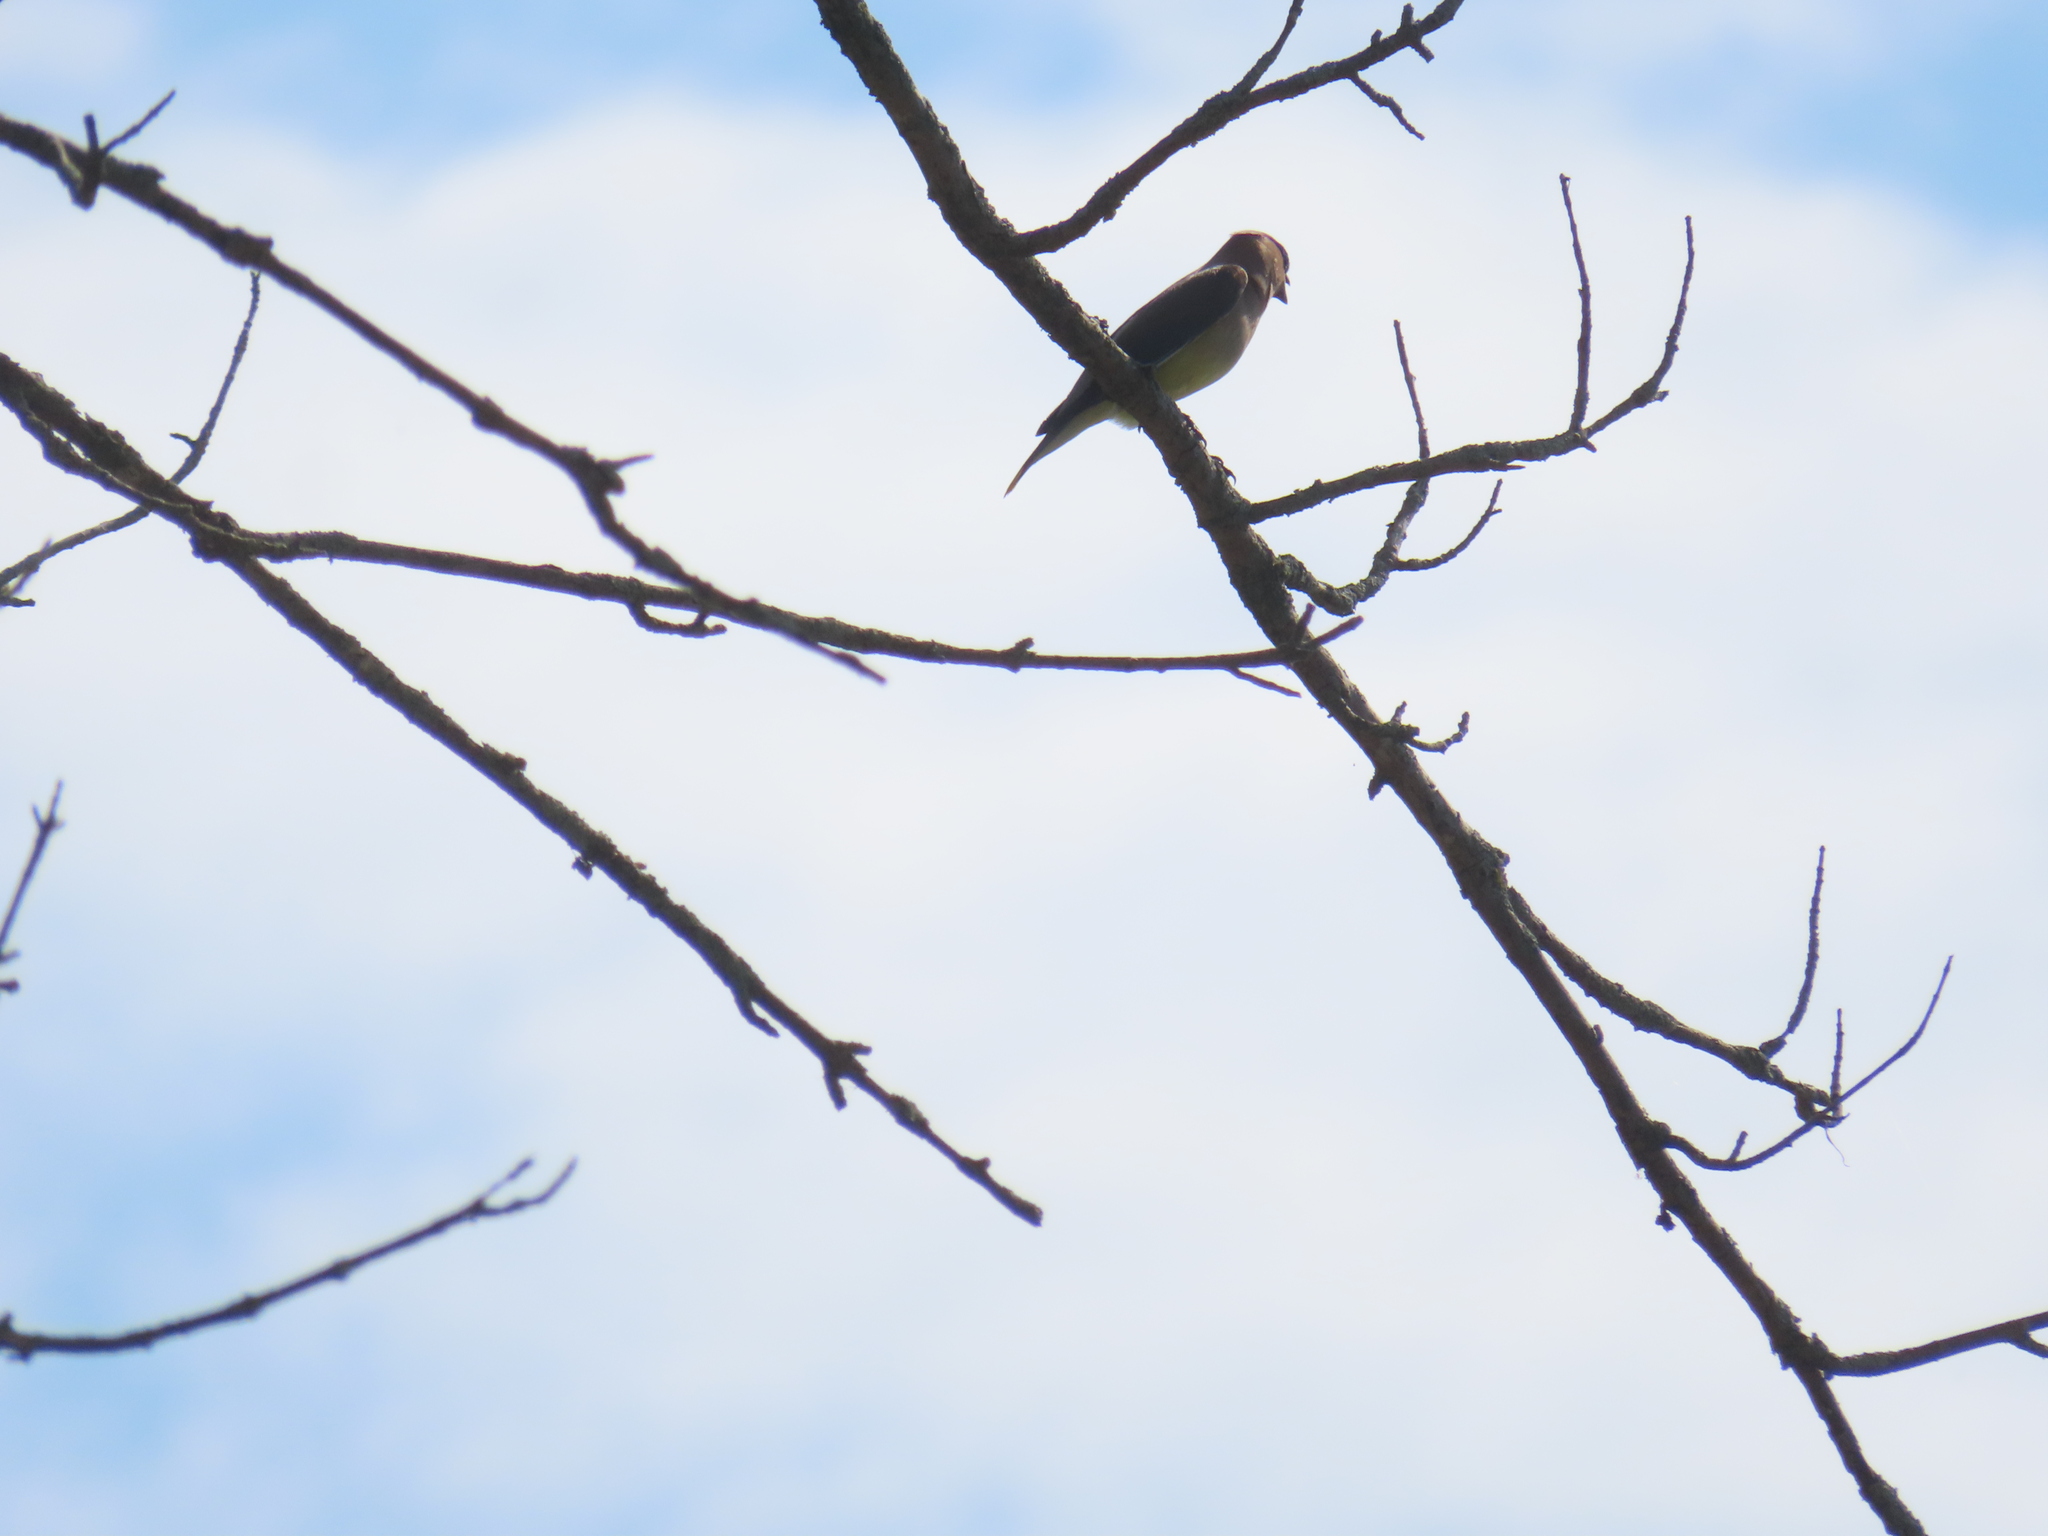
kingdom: Animalia
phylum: Chordata
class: Aves
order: Passeriformes
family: Bombycillidae
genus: Bombycilla
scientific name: Bombycilla cedrorum
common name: Cedar waxwing
